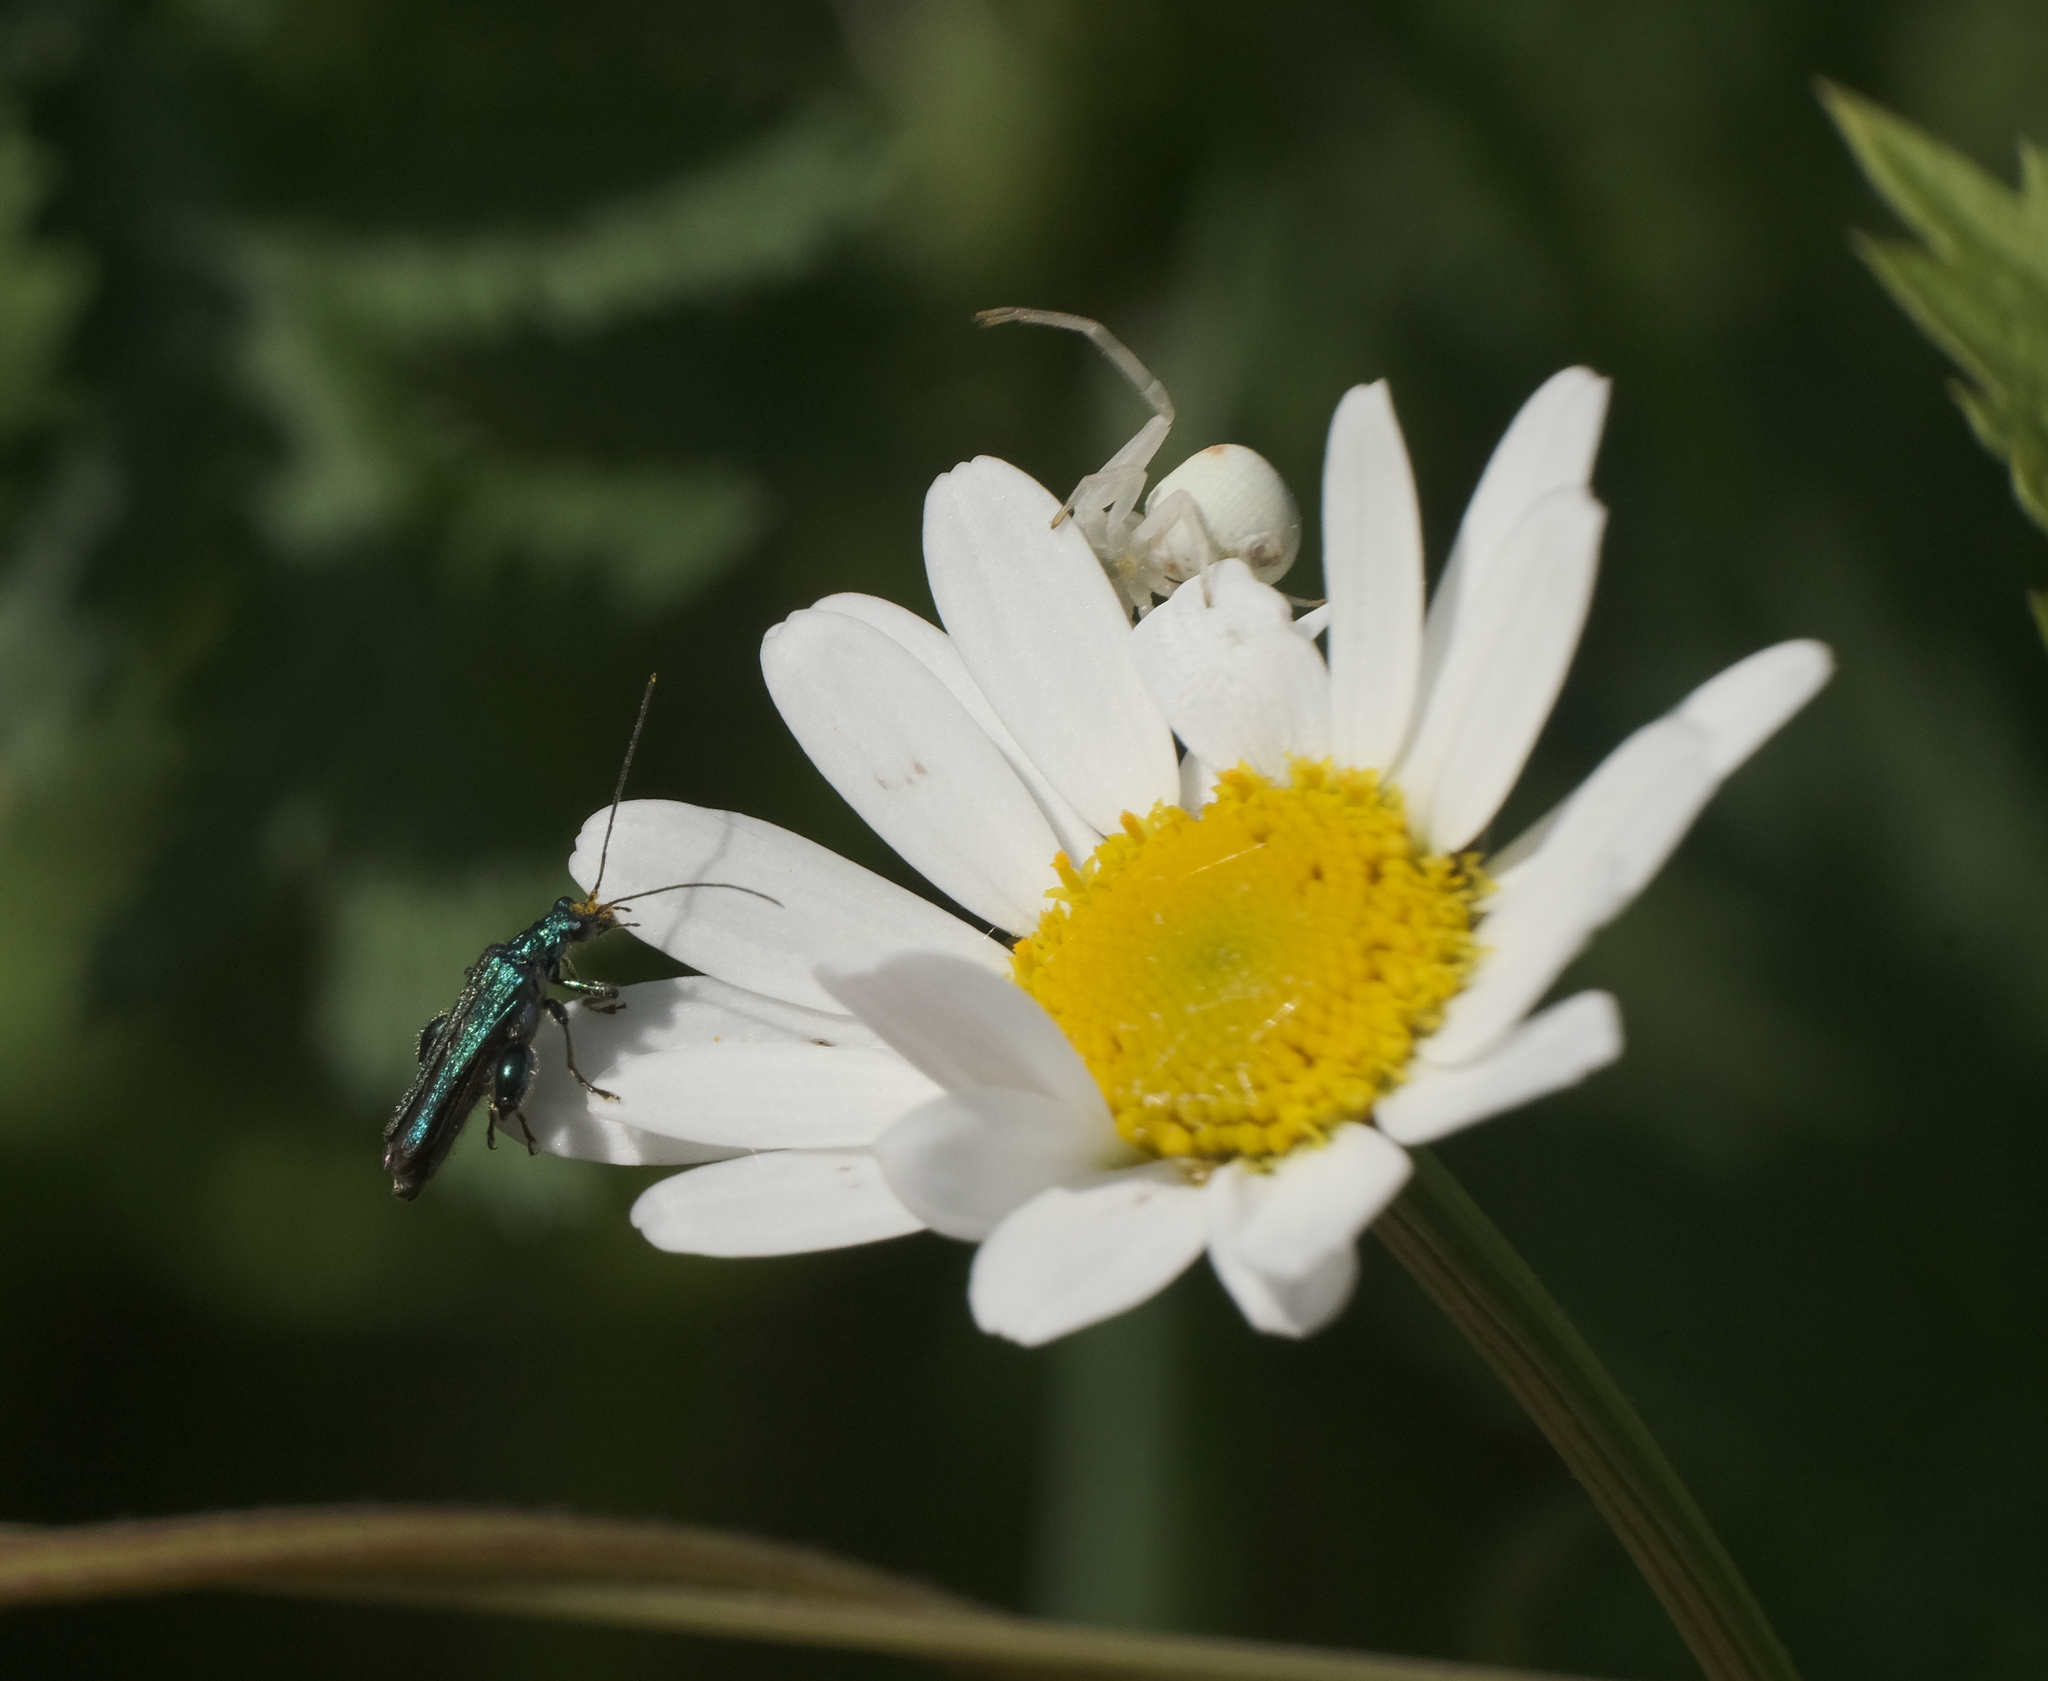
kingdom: Animalia
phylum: Arthropoda
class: Arachnida
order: Araneae
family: Thomisidae
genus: Misumena
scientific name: Misumena vatia
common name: Goldenrod crab spider
